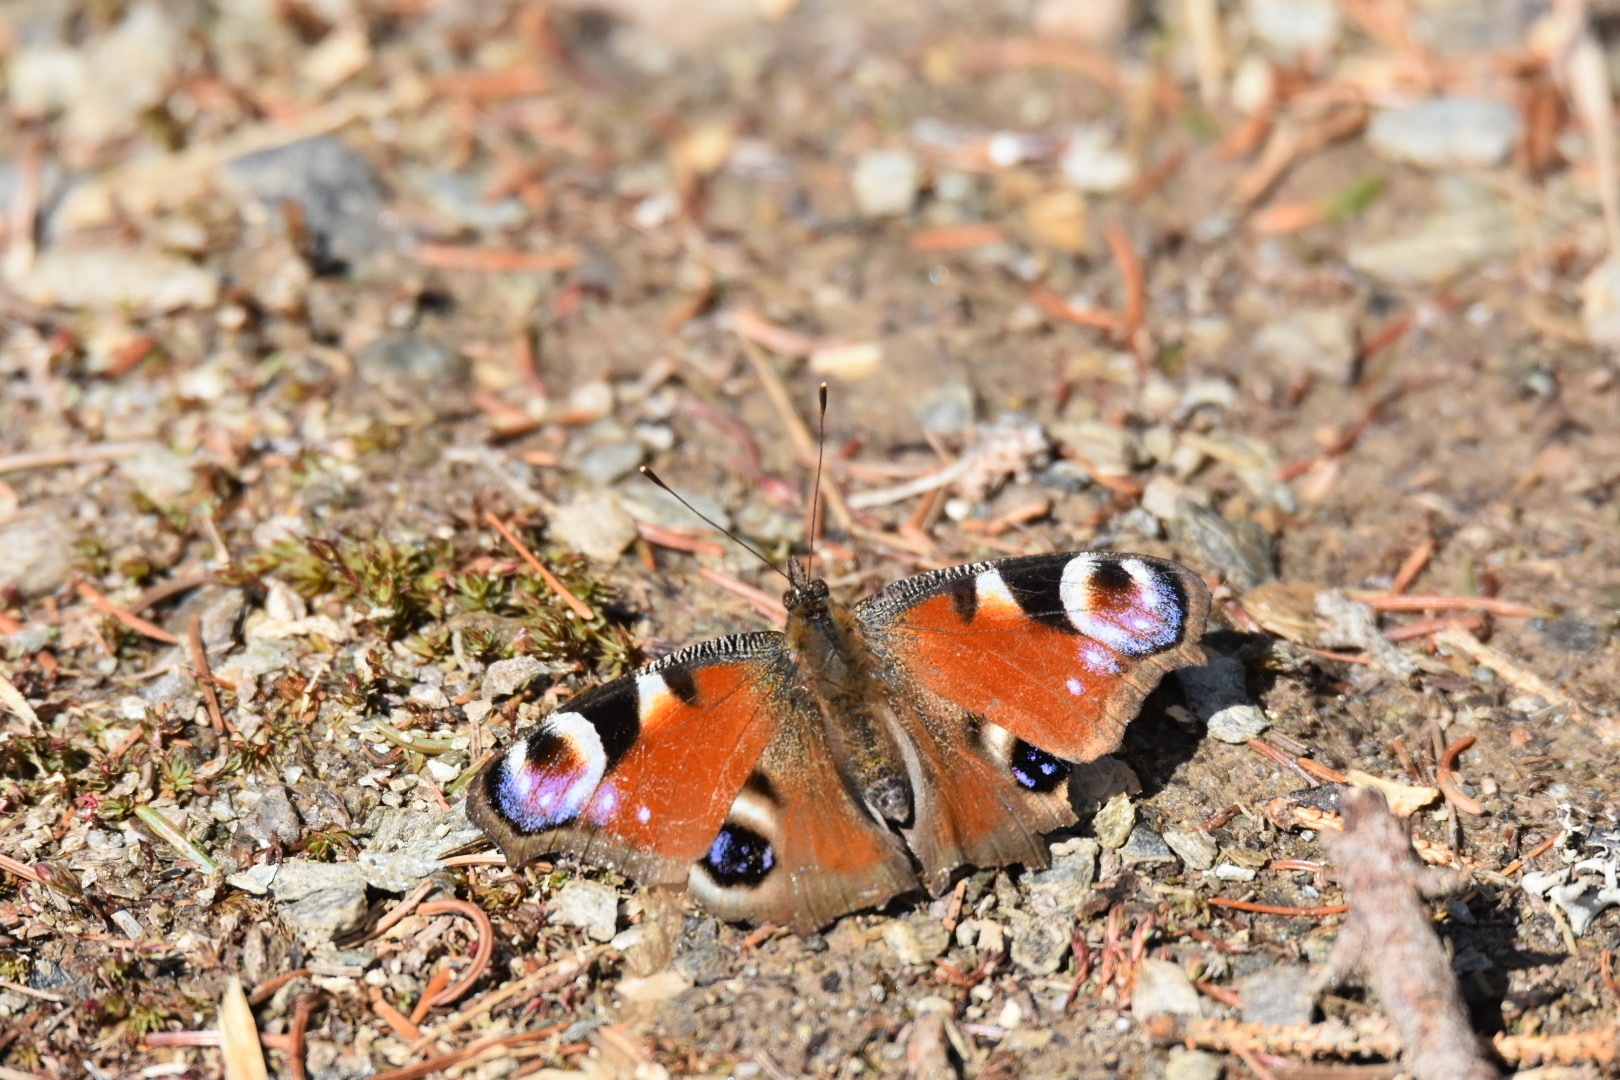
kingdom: Animalia
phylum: Arthropoda
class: Insecta
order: Lepidoptera
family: Nymphalidae
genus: Aglais
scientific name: Aglais io
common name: Peacock
